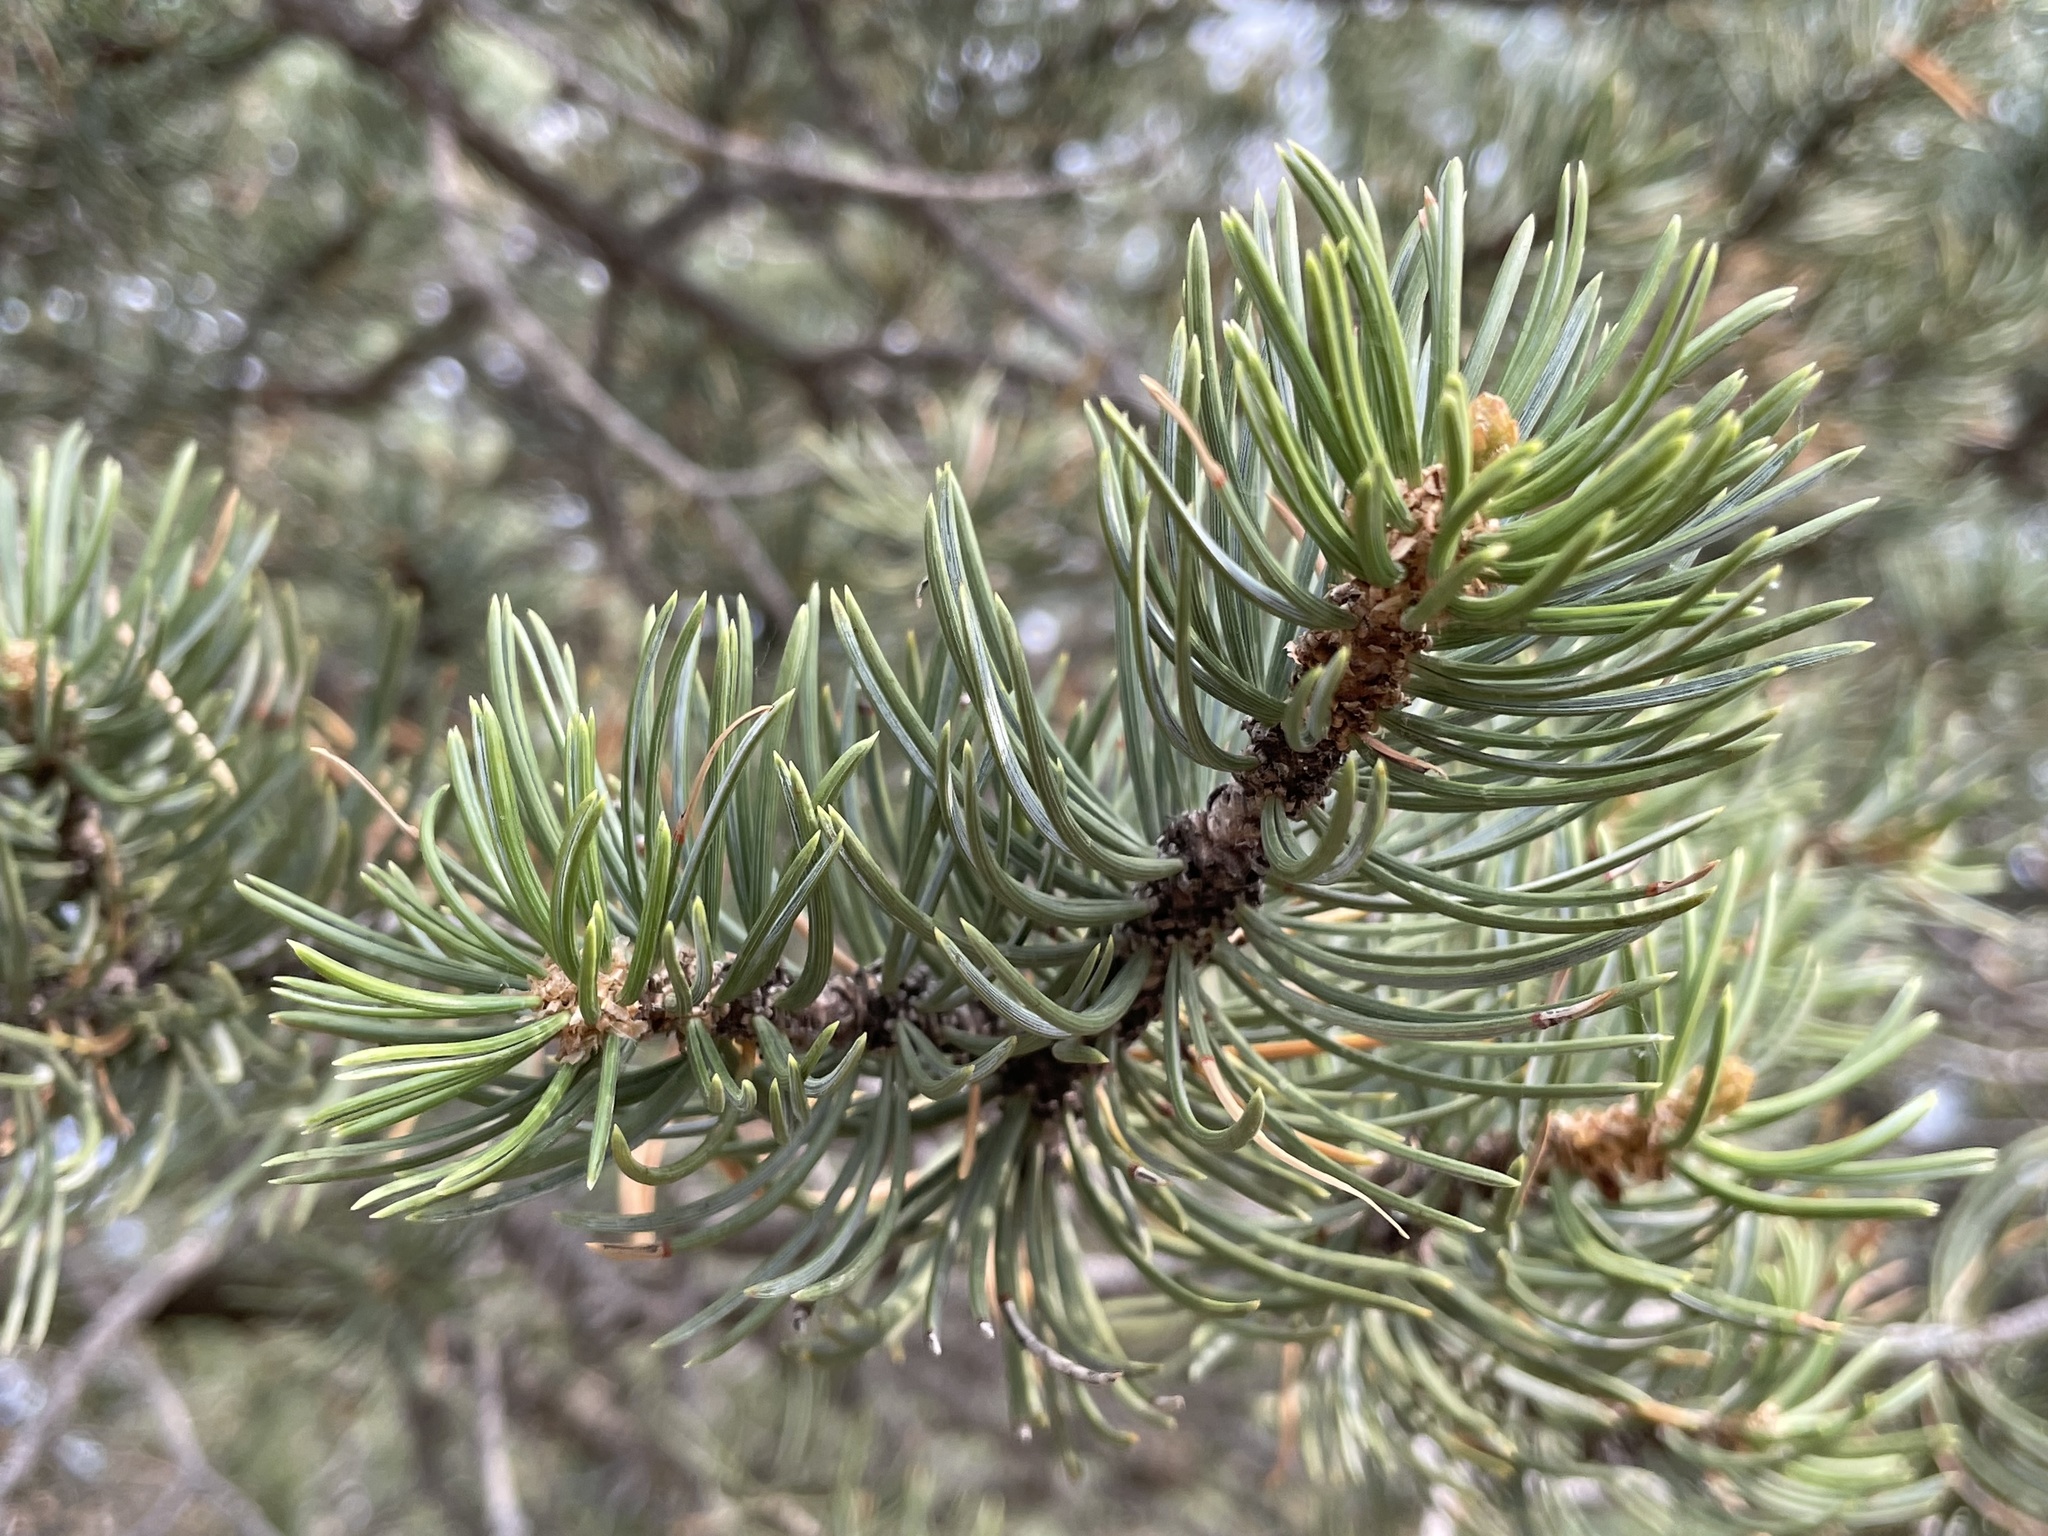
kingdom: Plantae
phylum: Tracheophyta
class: Pinopsida
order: Pinales
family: Pinaceae
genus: Pinus
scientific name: Pinus edulis
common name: Colorado pinyon
